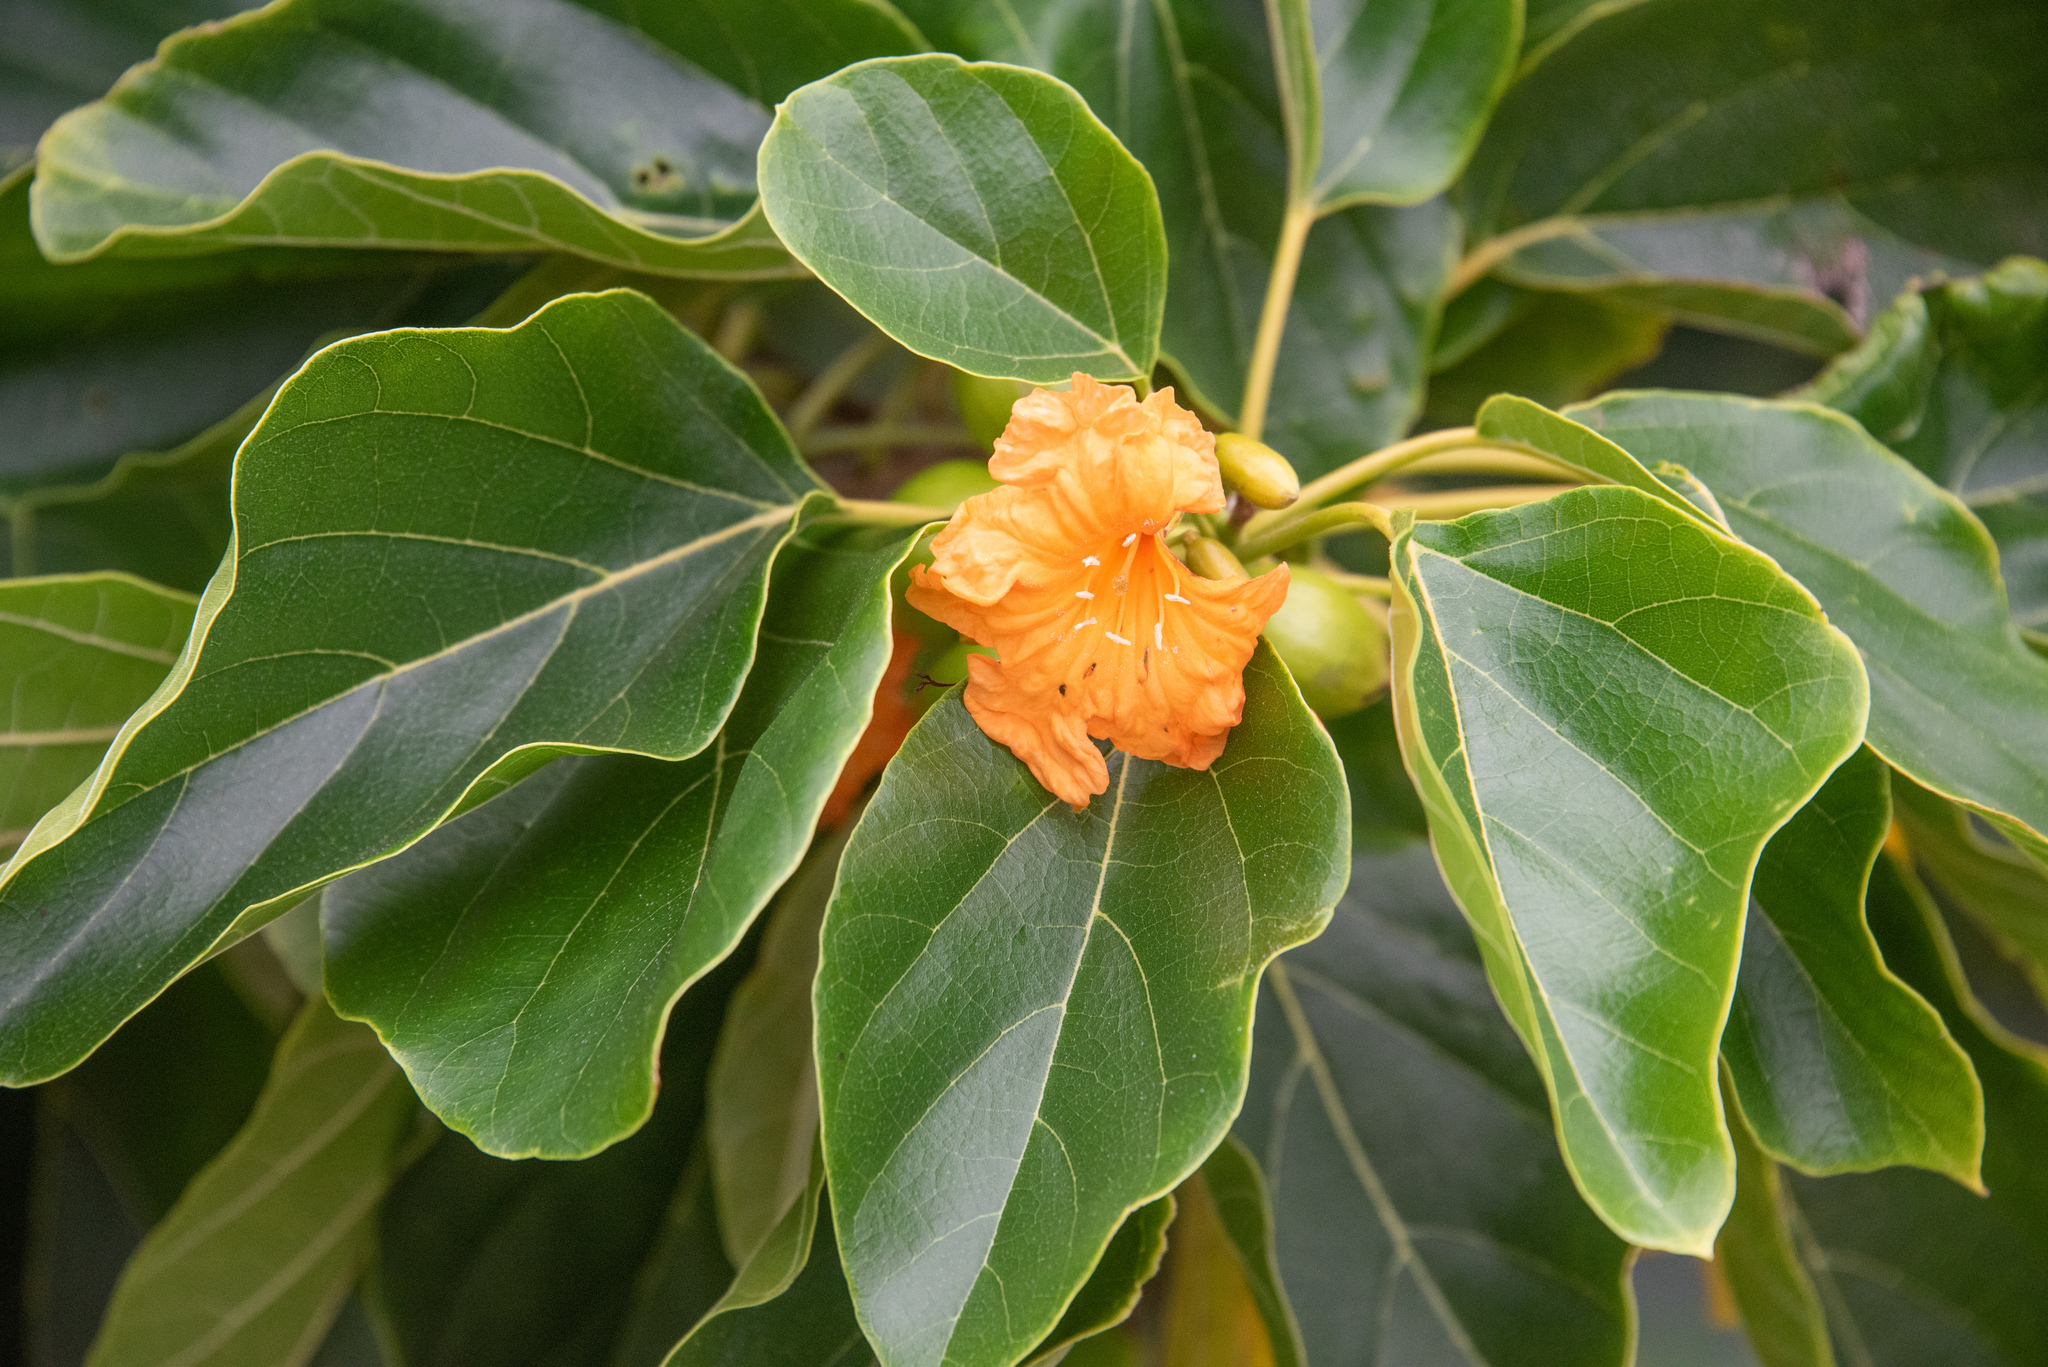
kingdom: Plantae
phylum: Tracheophyta
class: Magnoliopsida
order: Boraginales
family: Cordiaceae
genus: Cordia
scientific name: Cordia subcordata
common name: Mareer
